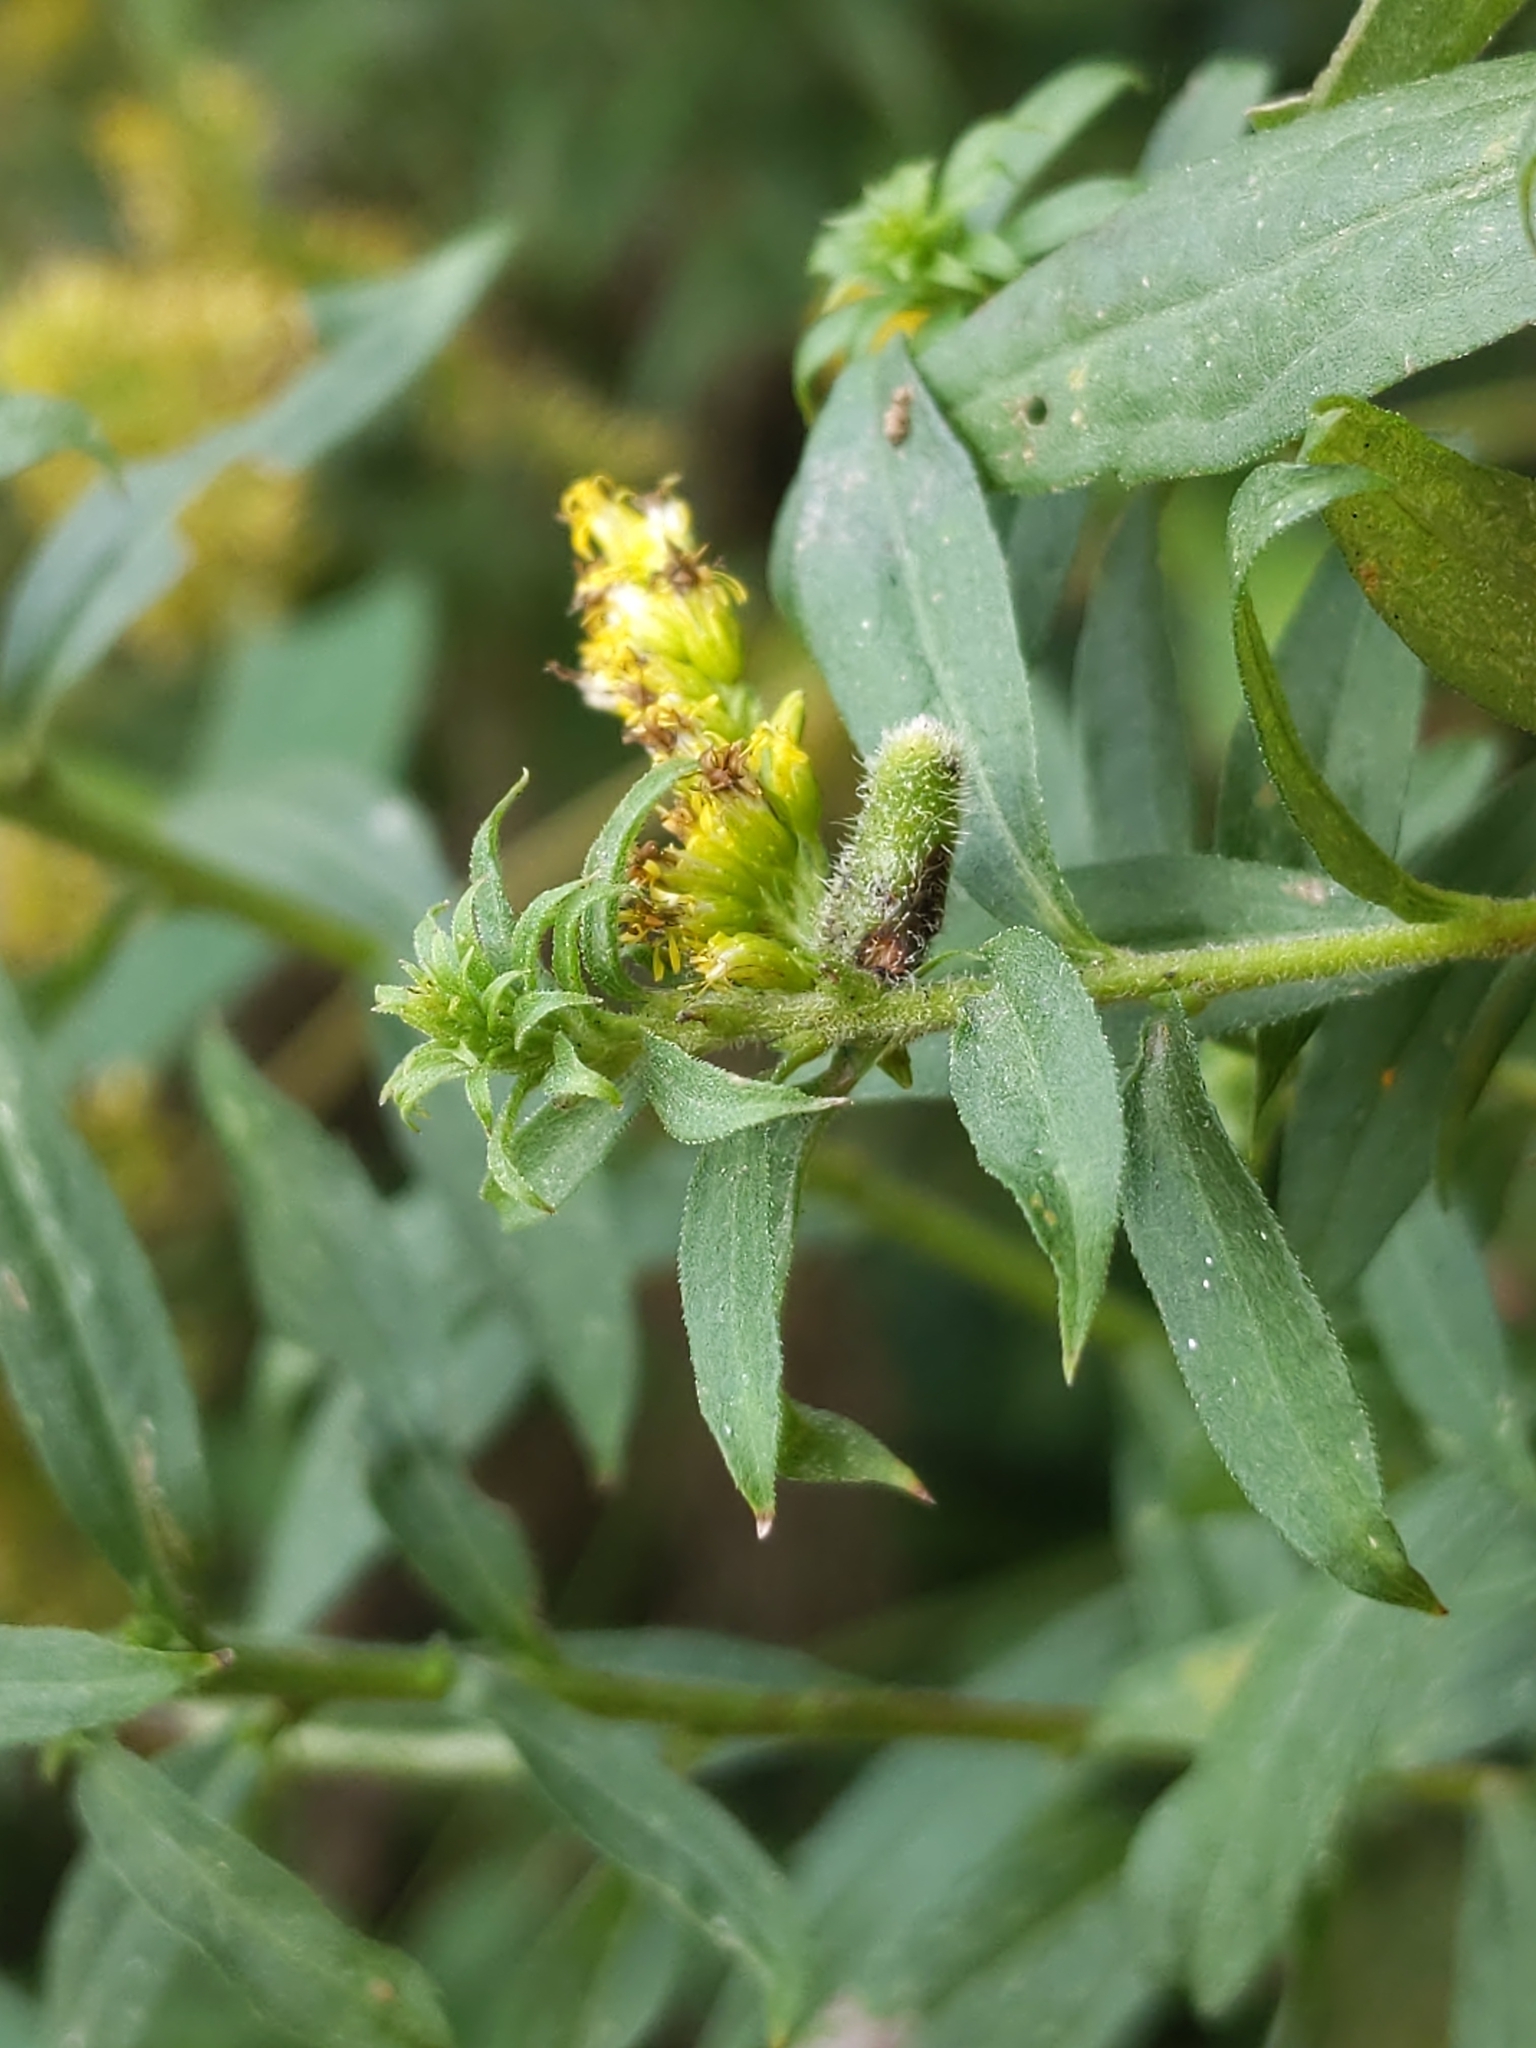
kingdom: Animalia
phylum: Arthropoda
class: Insecta
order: Diptera
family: Cecidomyiidae
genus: Rhopalomyia
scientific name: Rhopalomyia anthophila
